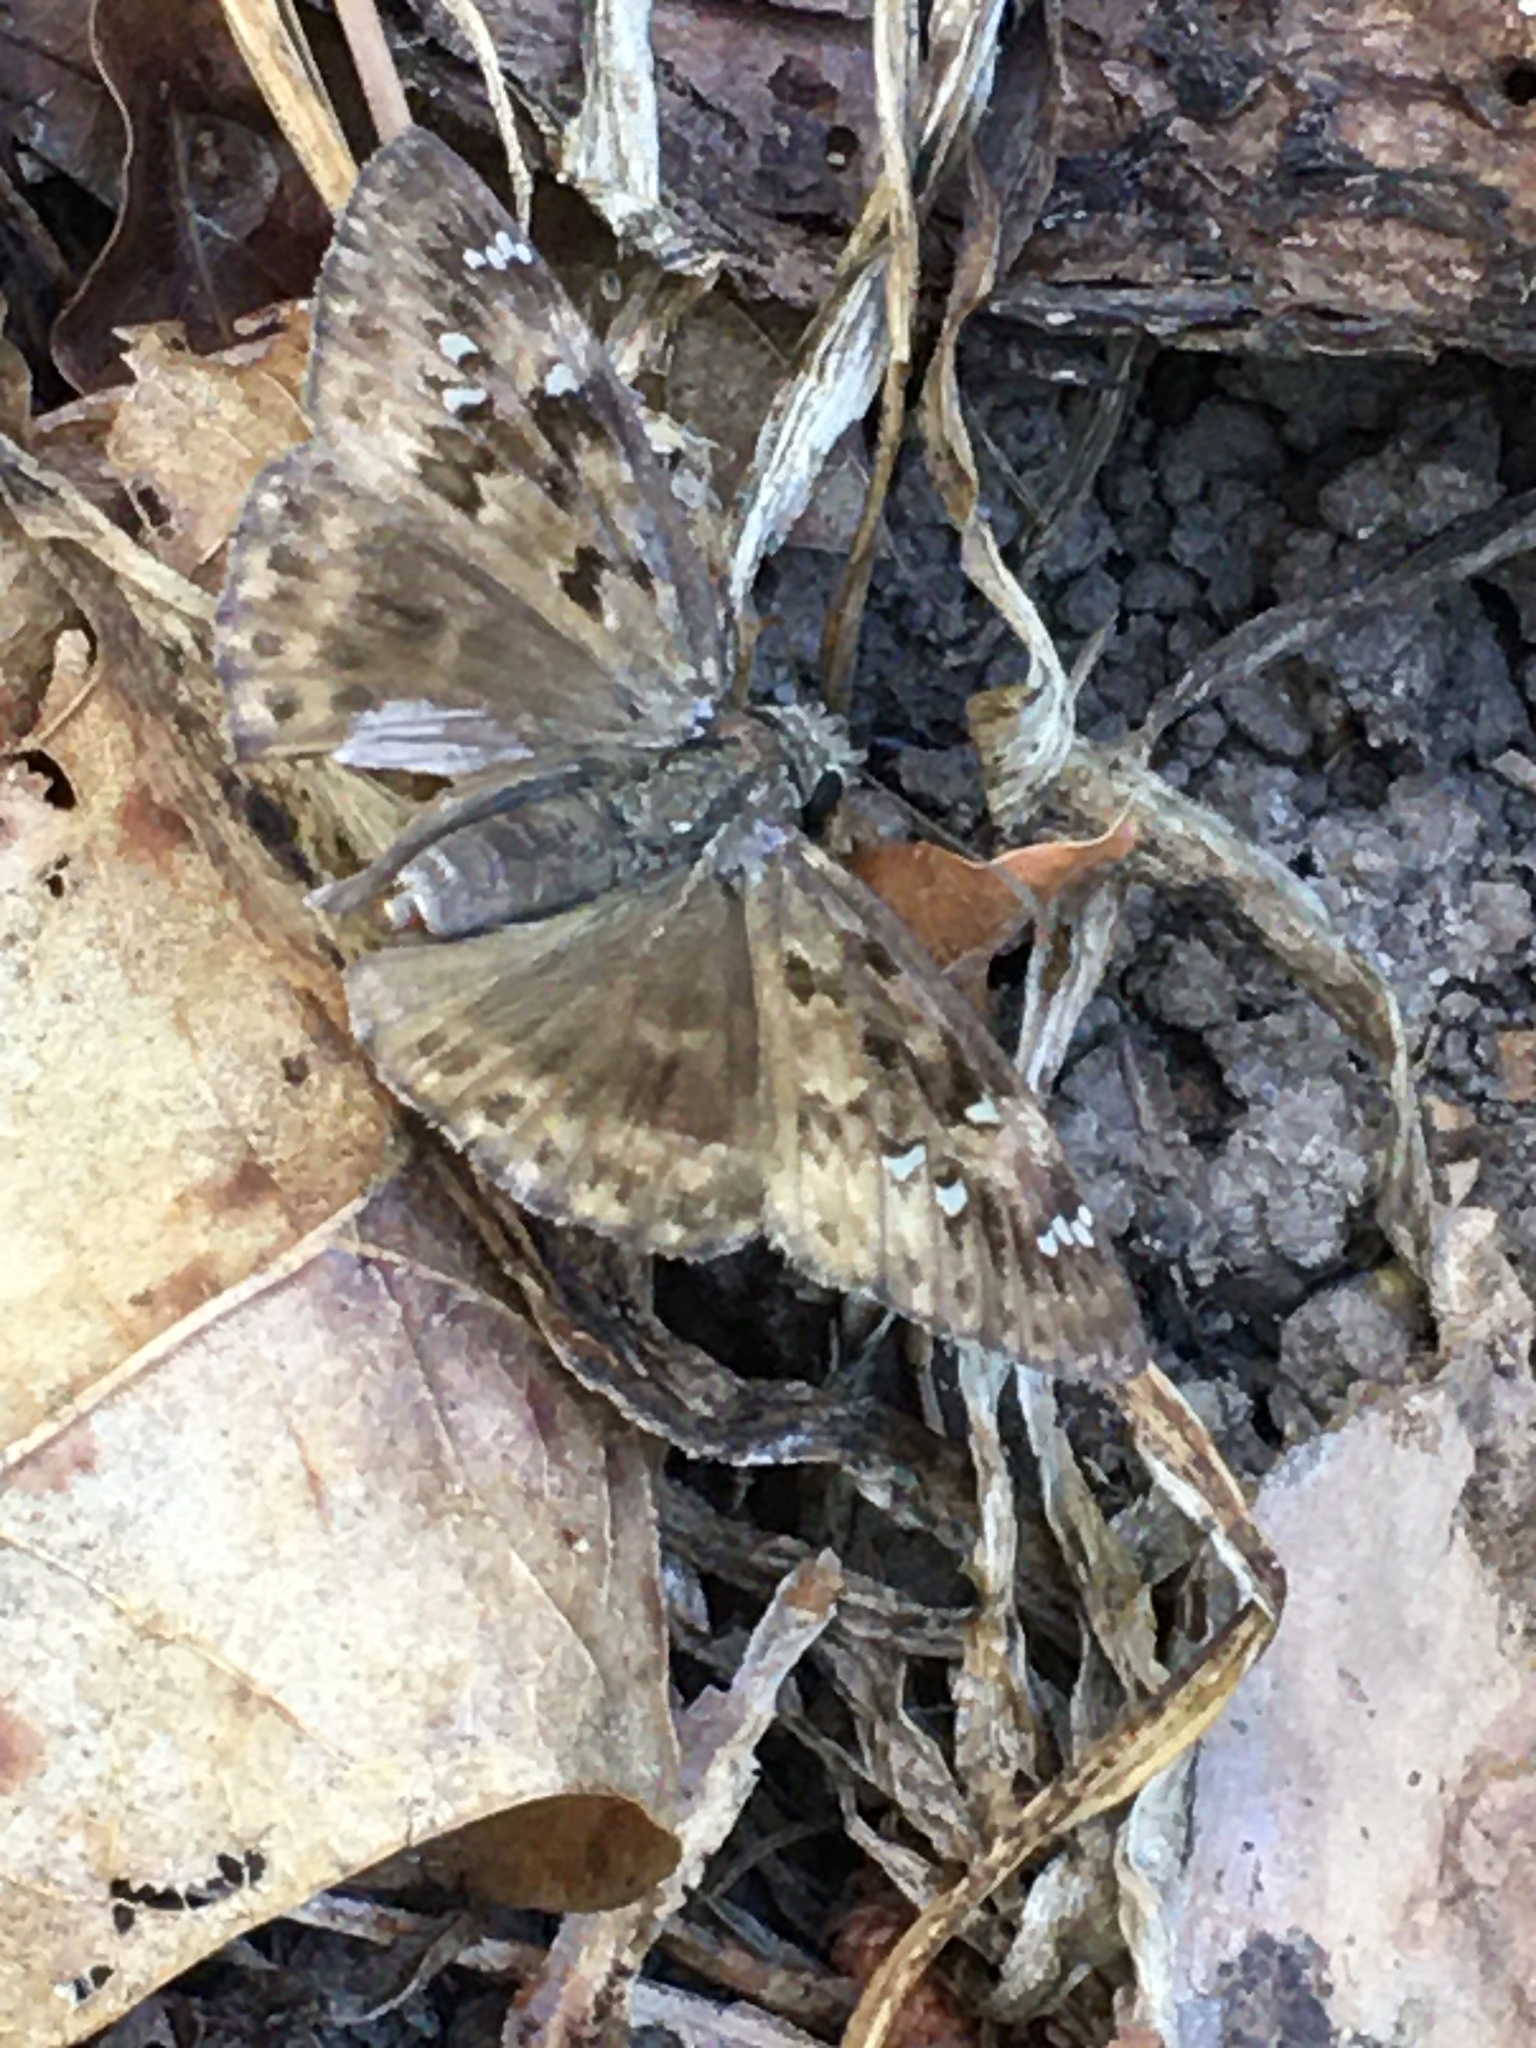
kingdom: Animalia
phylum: Arthropoda
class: Insecta
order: Lepidoptera
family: Hesperiidae
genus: Erynnis
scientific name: Erynnis horatius
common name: Horace's duskywing
